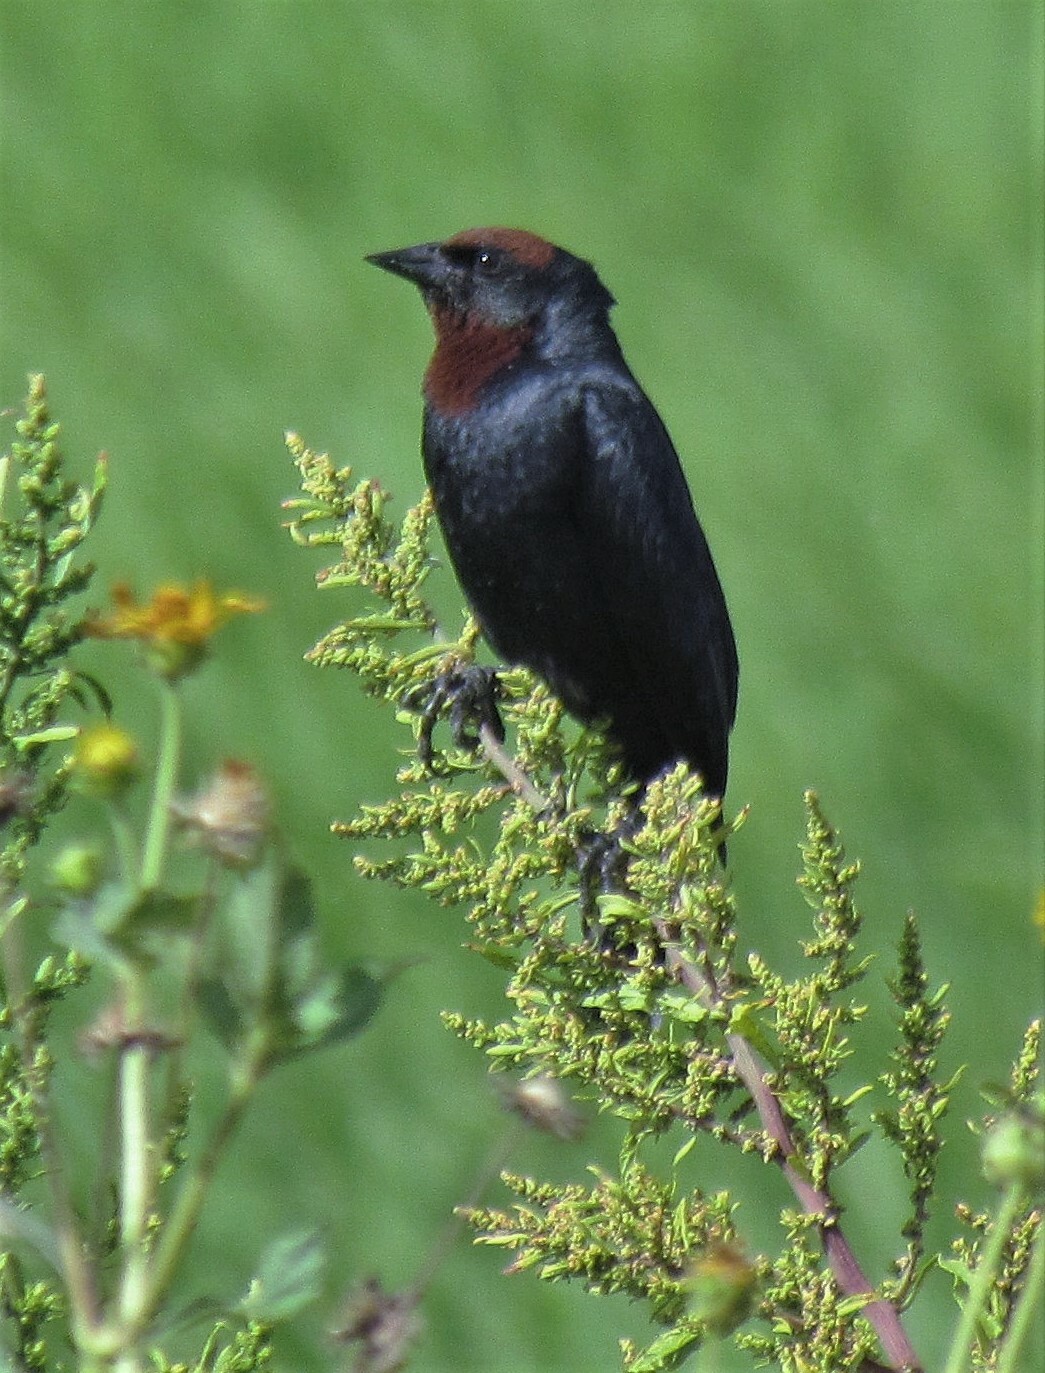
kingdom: Animalia
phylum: Chordata
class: Aves
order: Passeriformes
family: Icteridae
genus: Chrysomus
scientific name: Chrysomus ruficapillus
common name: Chestnut-capped blackbird
